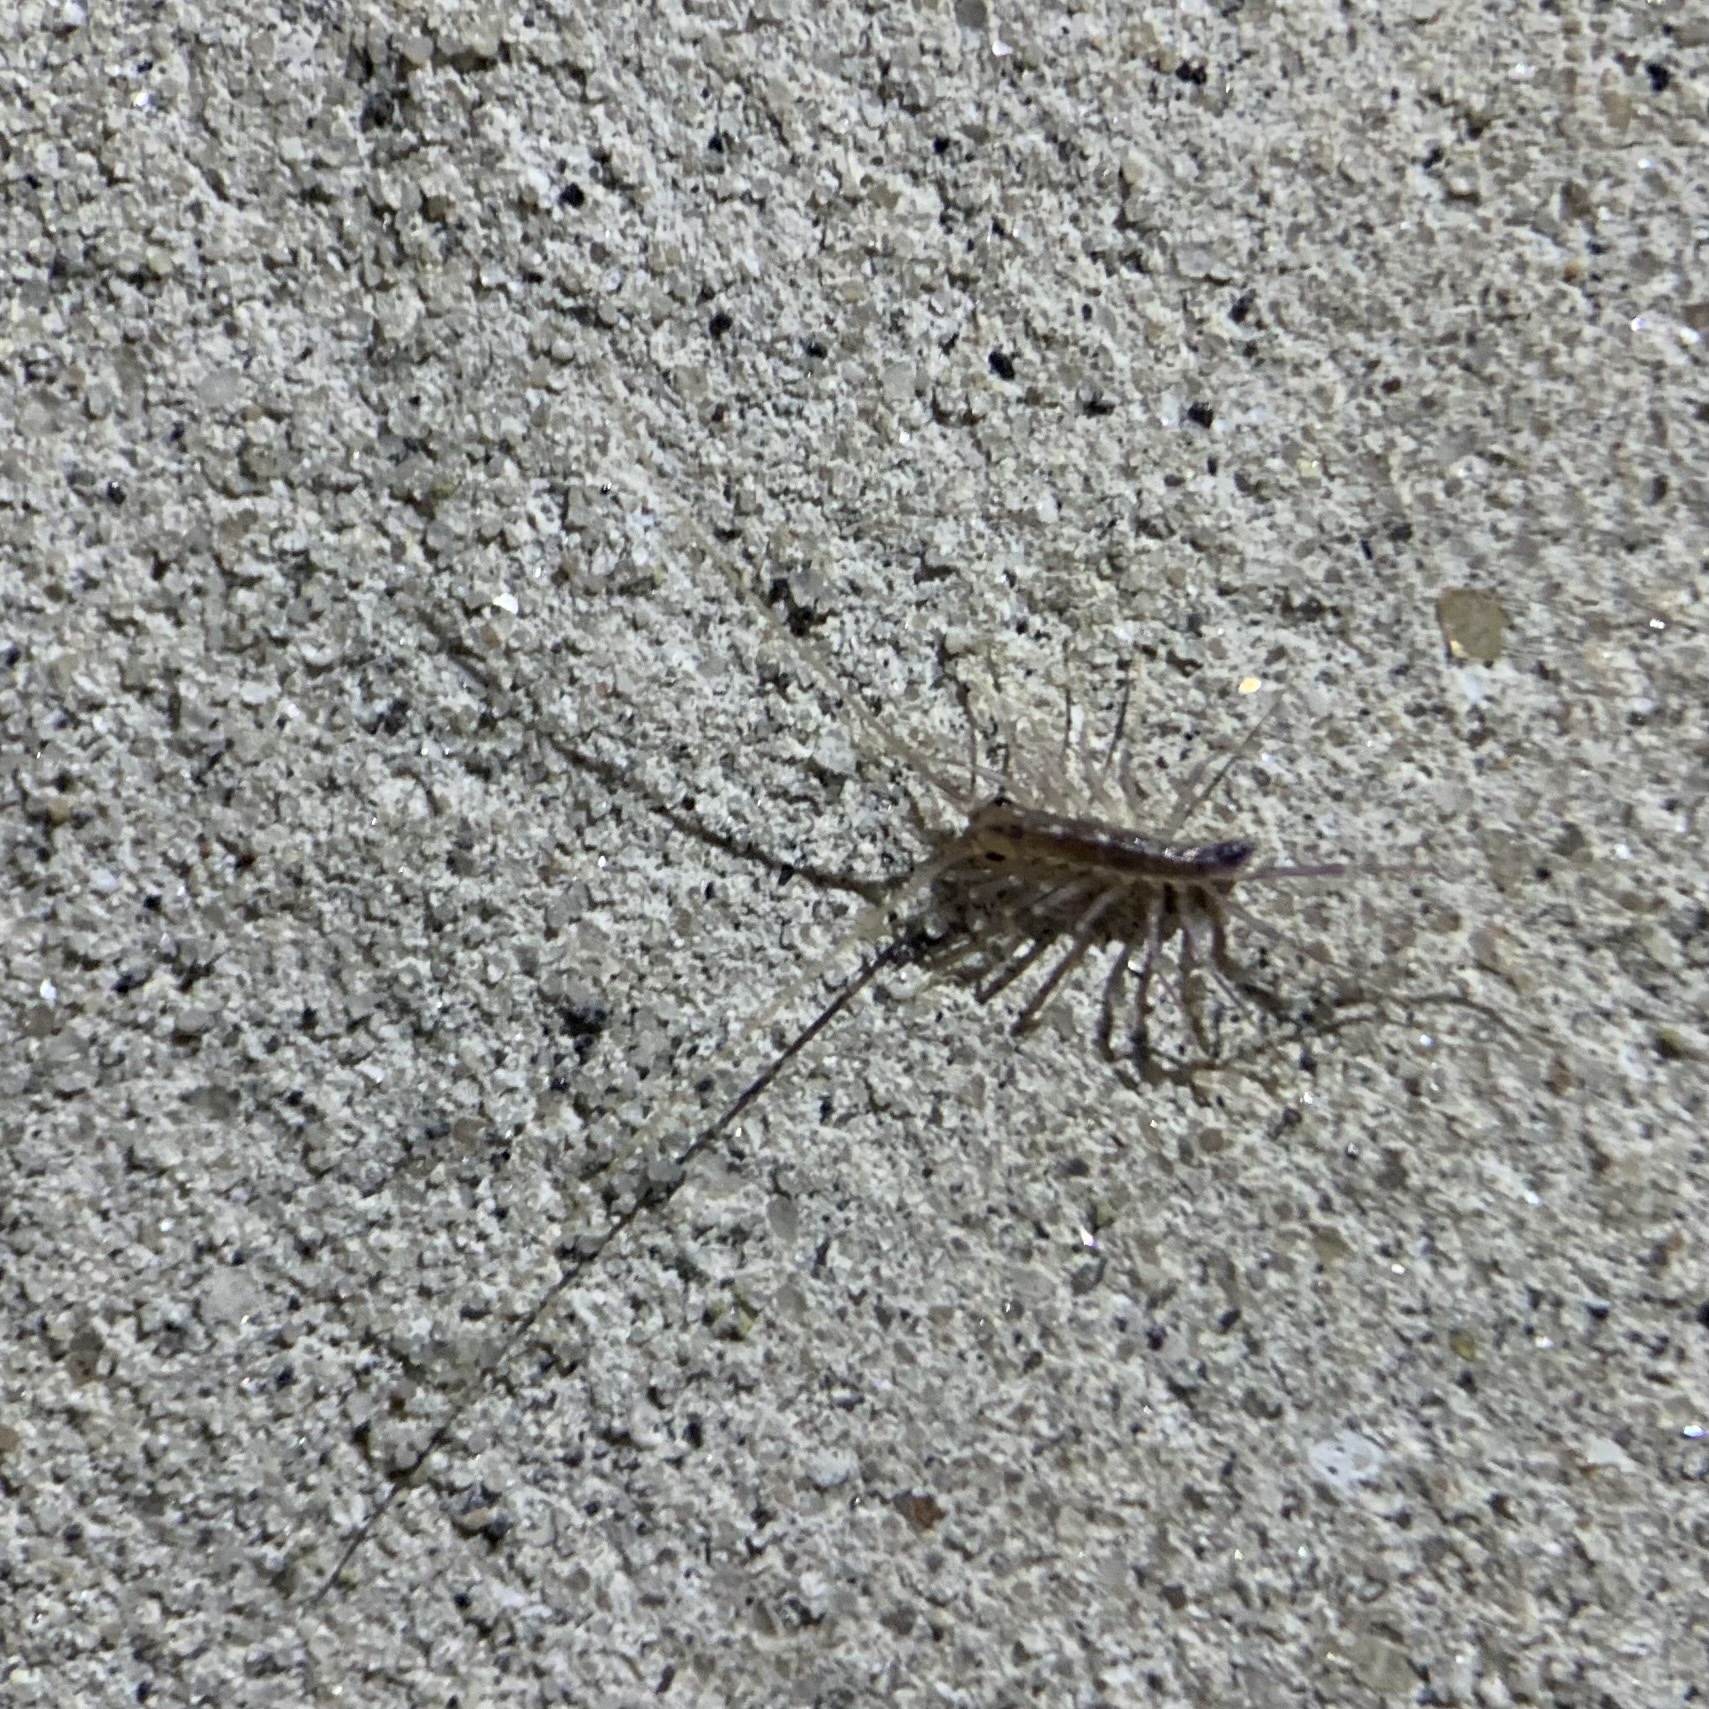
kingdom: Animalia
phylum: Arthropoda
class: Chilopoda
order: Scutigeromorpha
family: Scutigeridae
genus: Scutigera
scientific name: Scutigera coleoptrata
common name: House centipede
